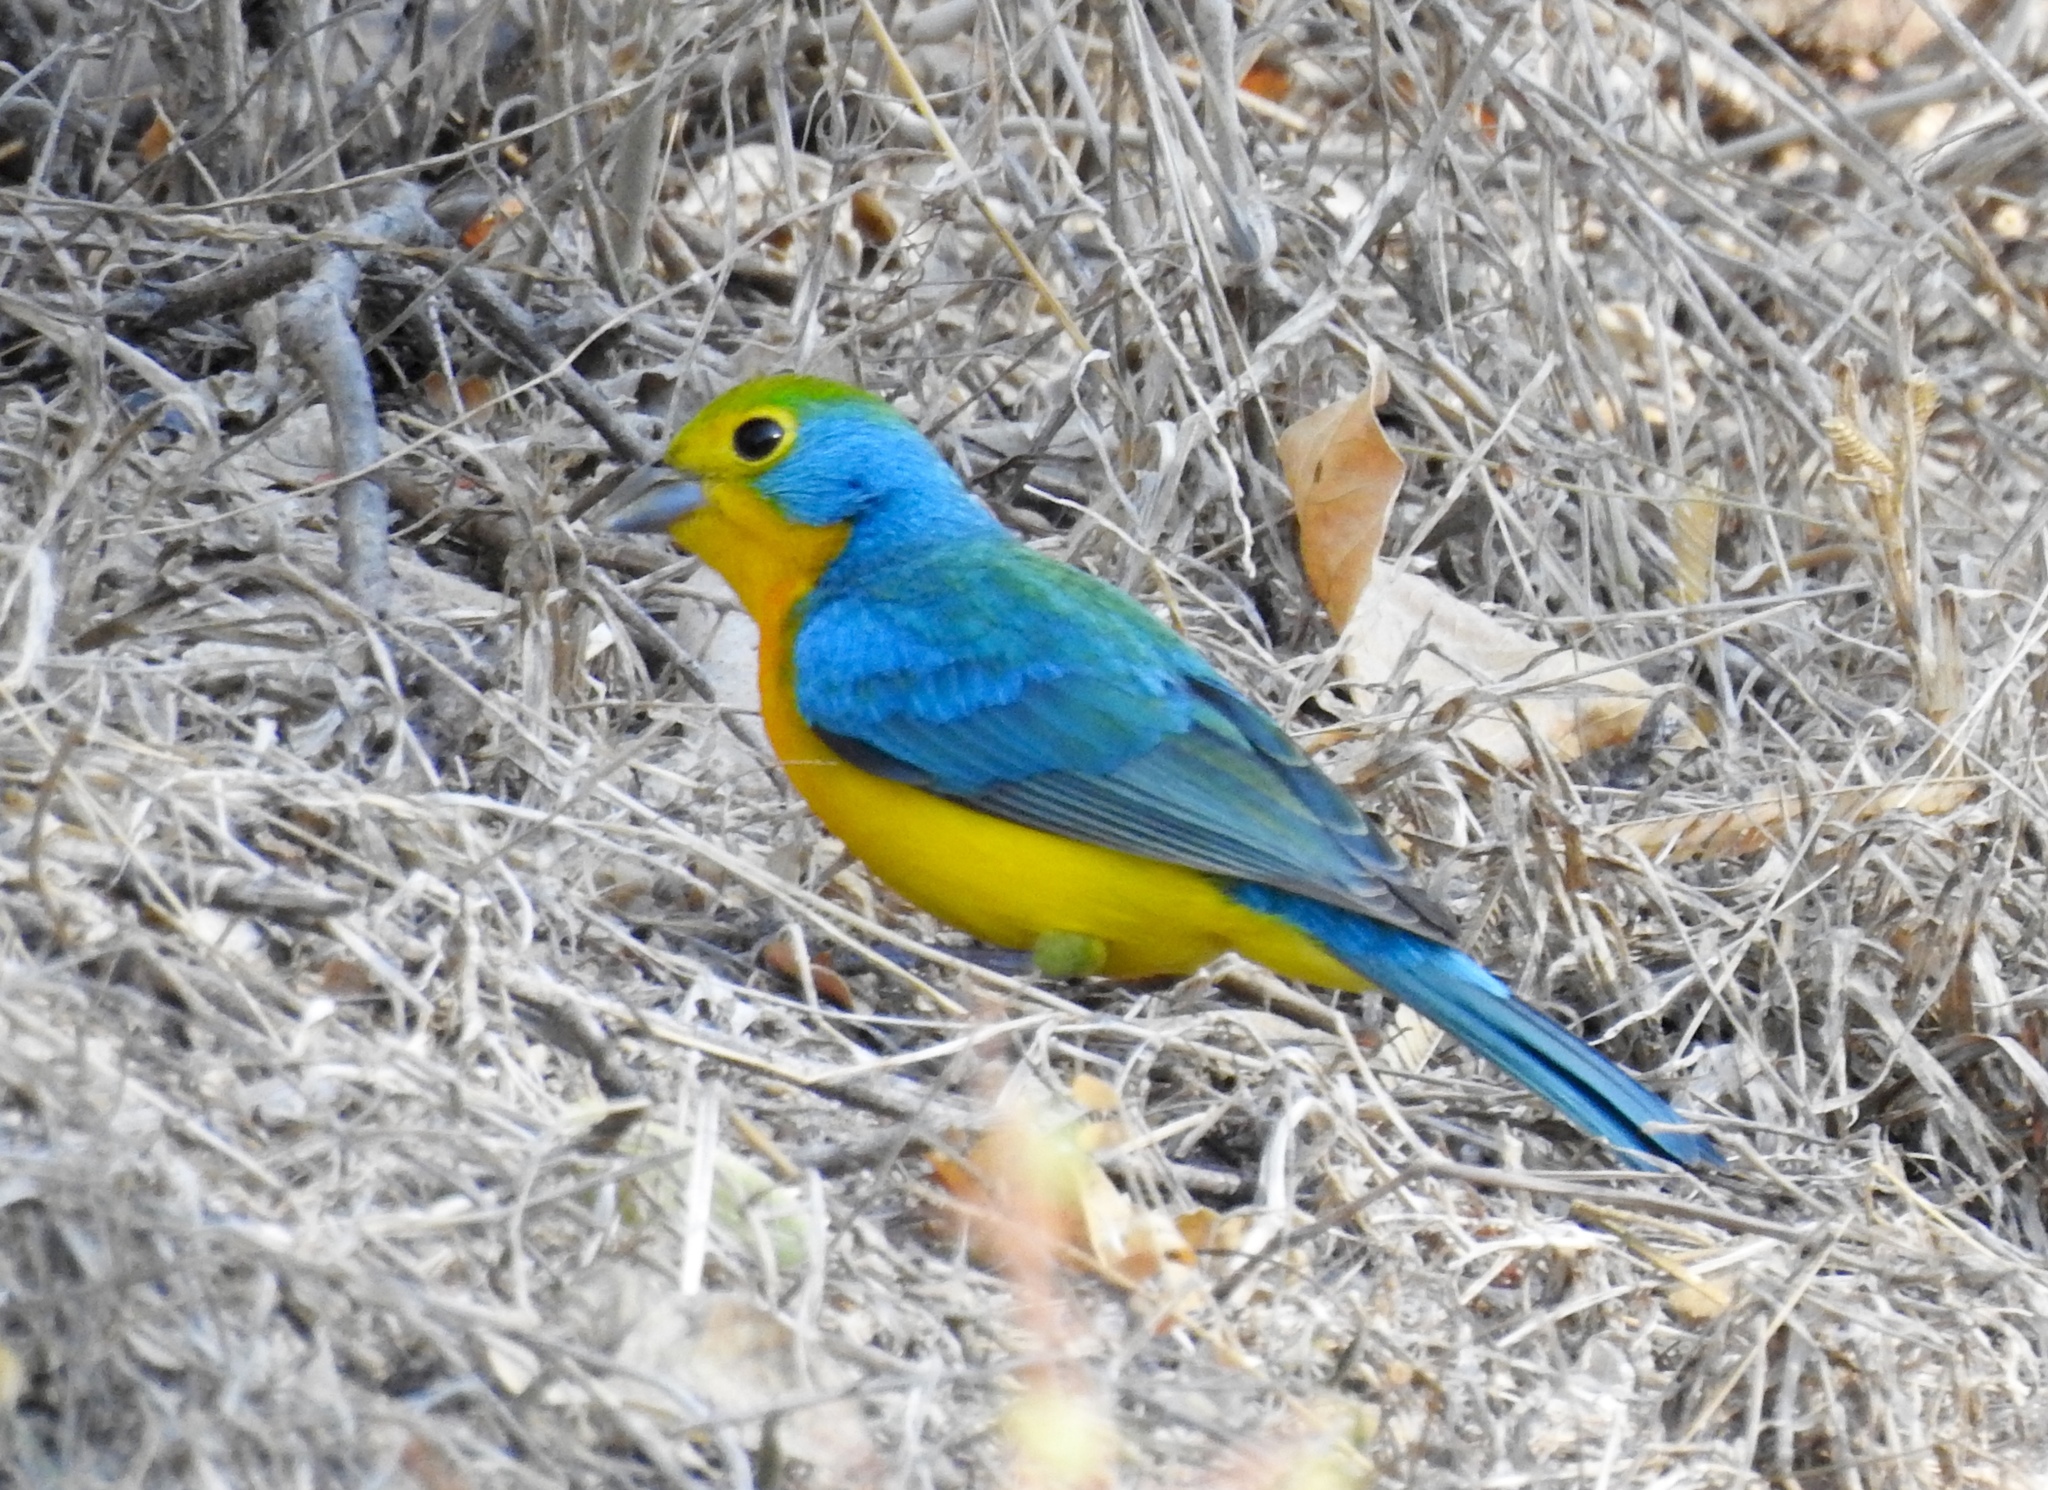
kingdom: Animalia
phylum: Chordata
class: Aves
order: Passeriformes
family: Cardinalidae
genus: Passerina
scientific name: Passerina leclancherii
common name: Orange-breasted bunting
